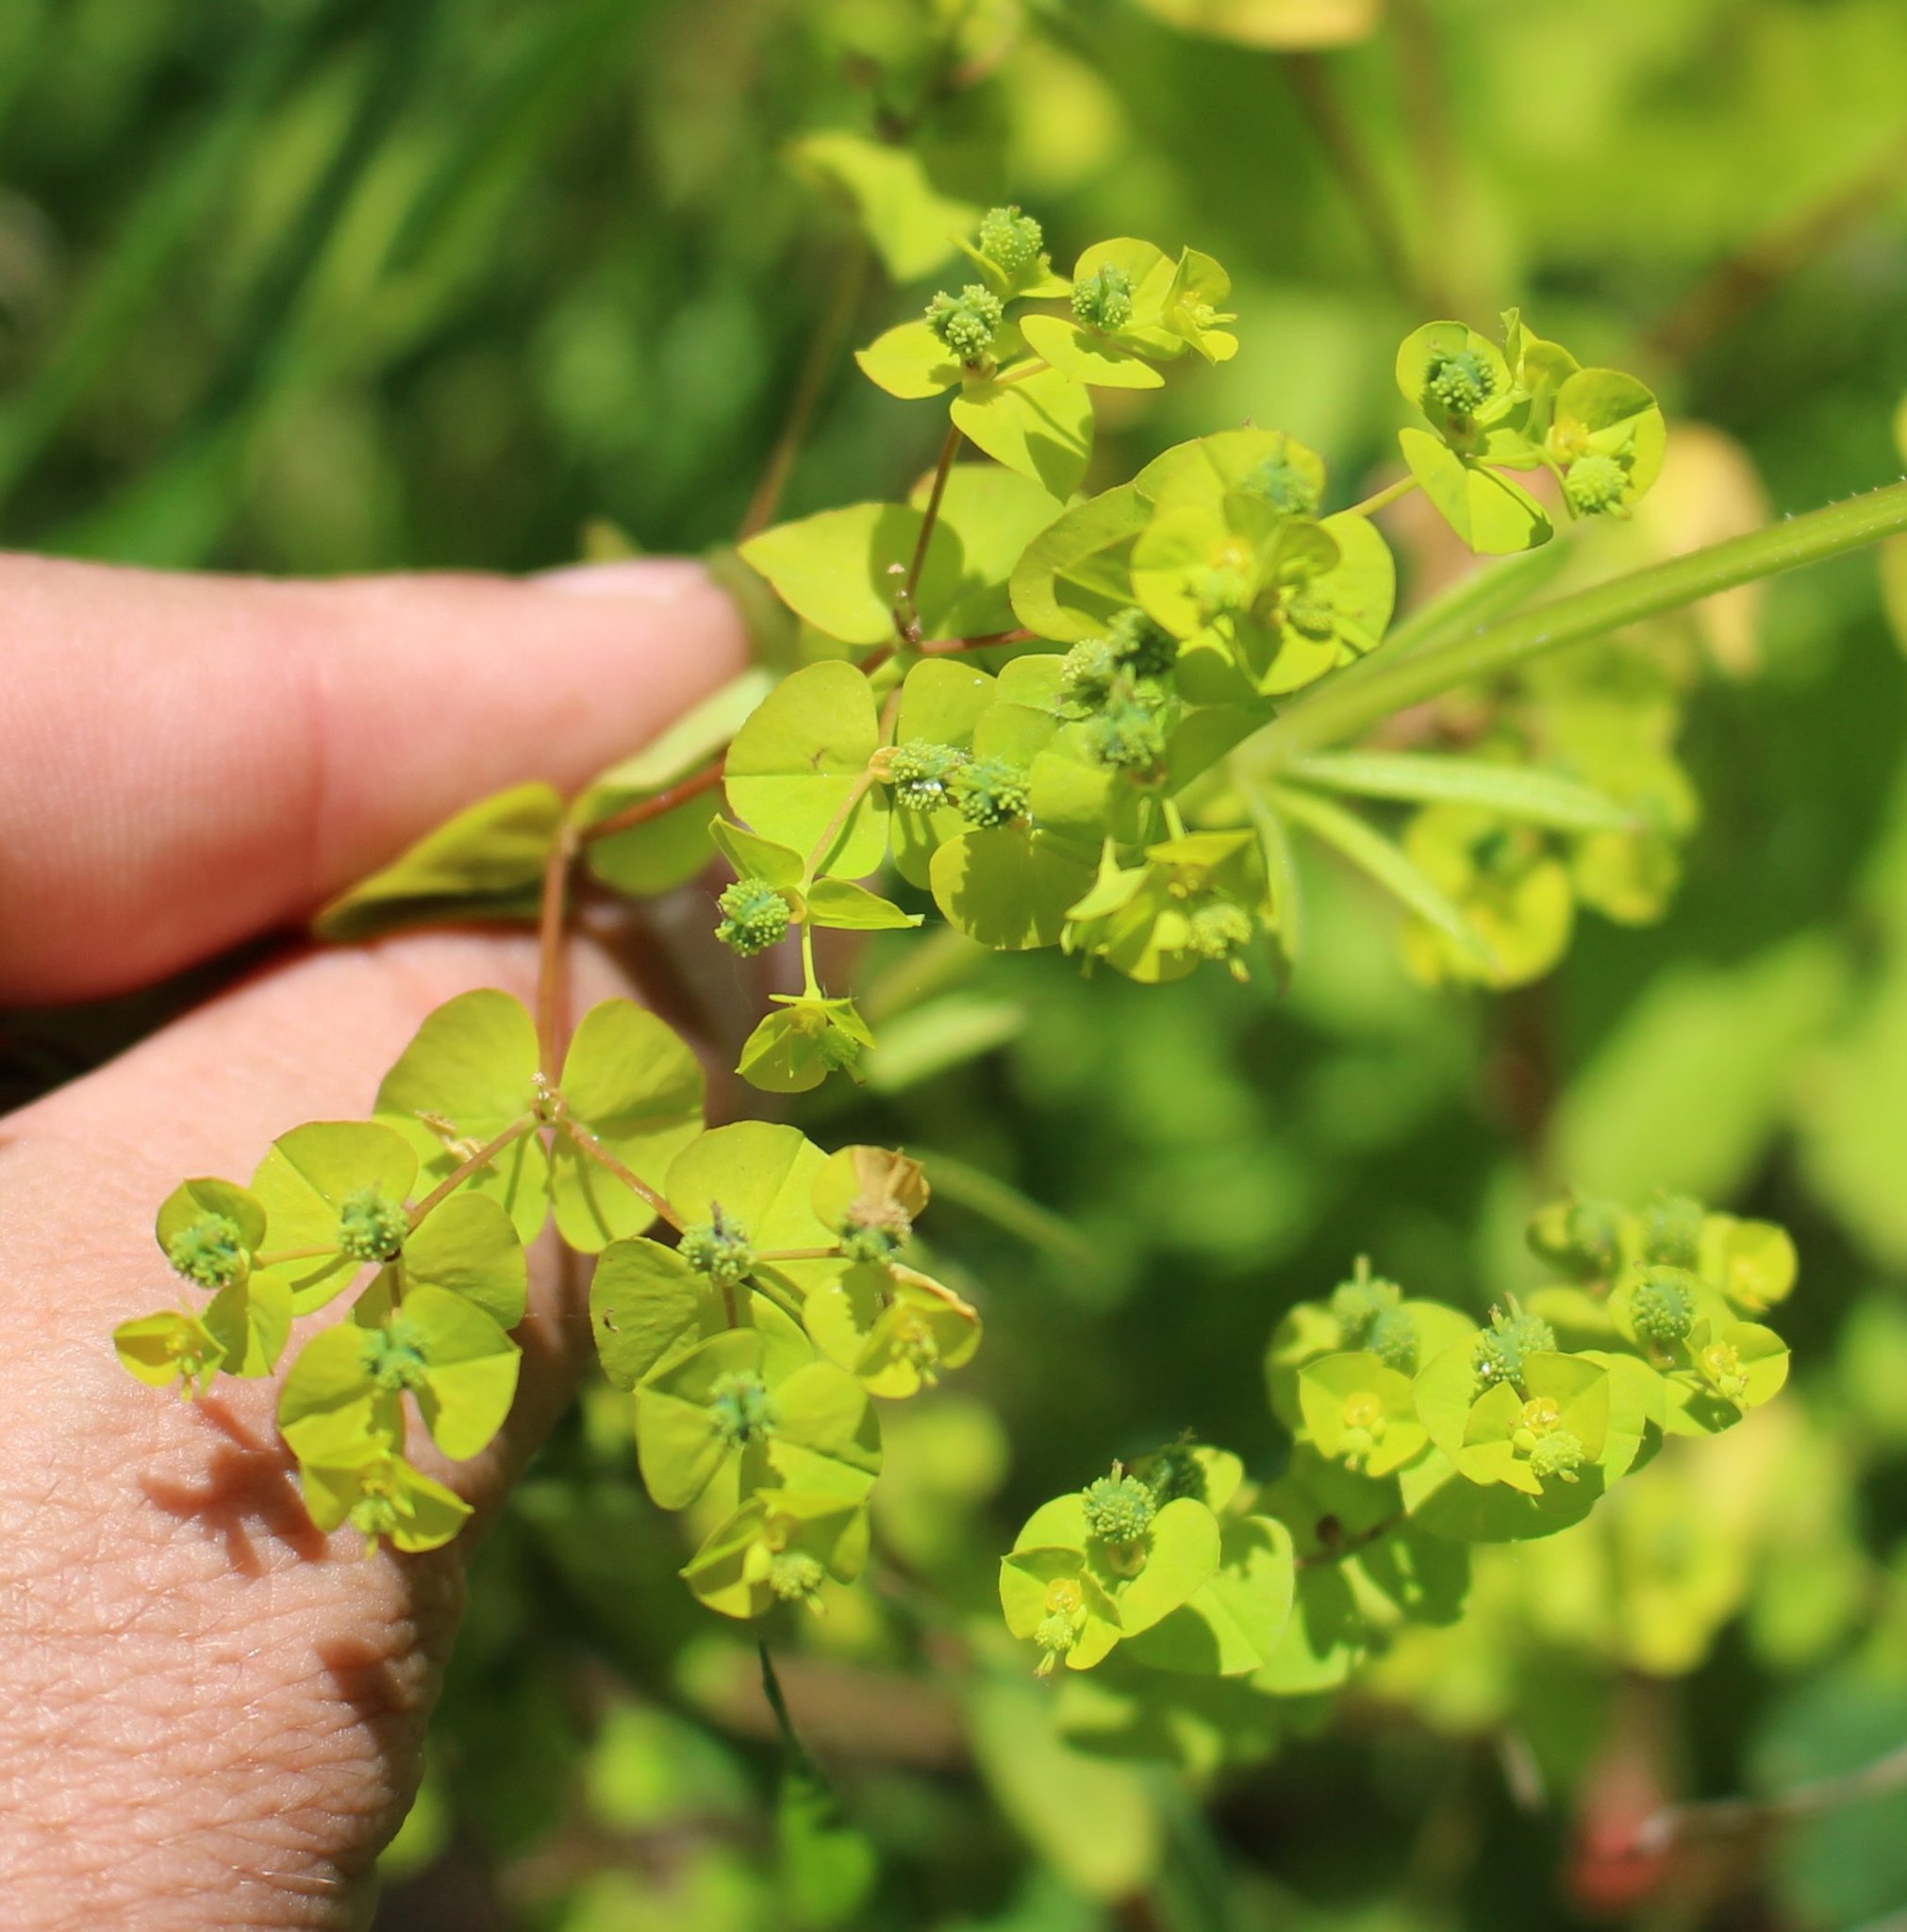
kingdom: Plantae
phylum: Tracheophyta
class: Magnoliopsida
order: Malpighiales
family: Euphorbiaceae
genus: Euphorbia
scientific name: Euphorbia stricta
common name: Upright spurge
